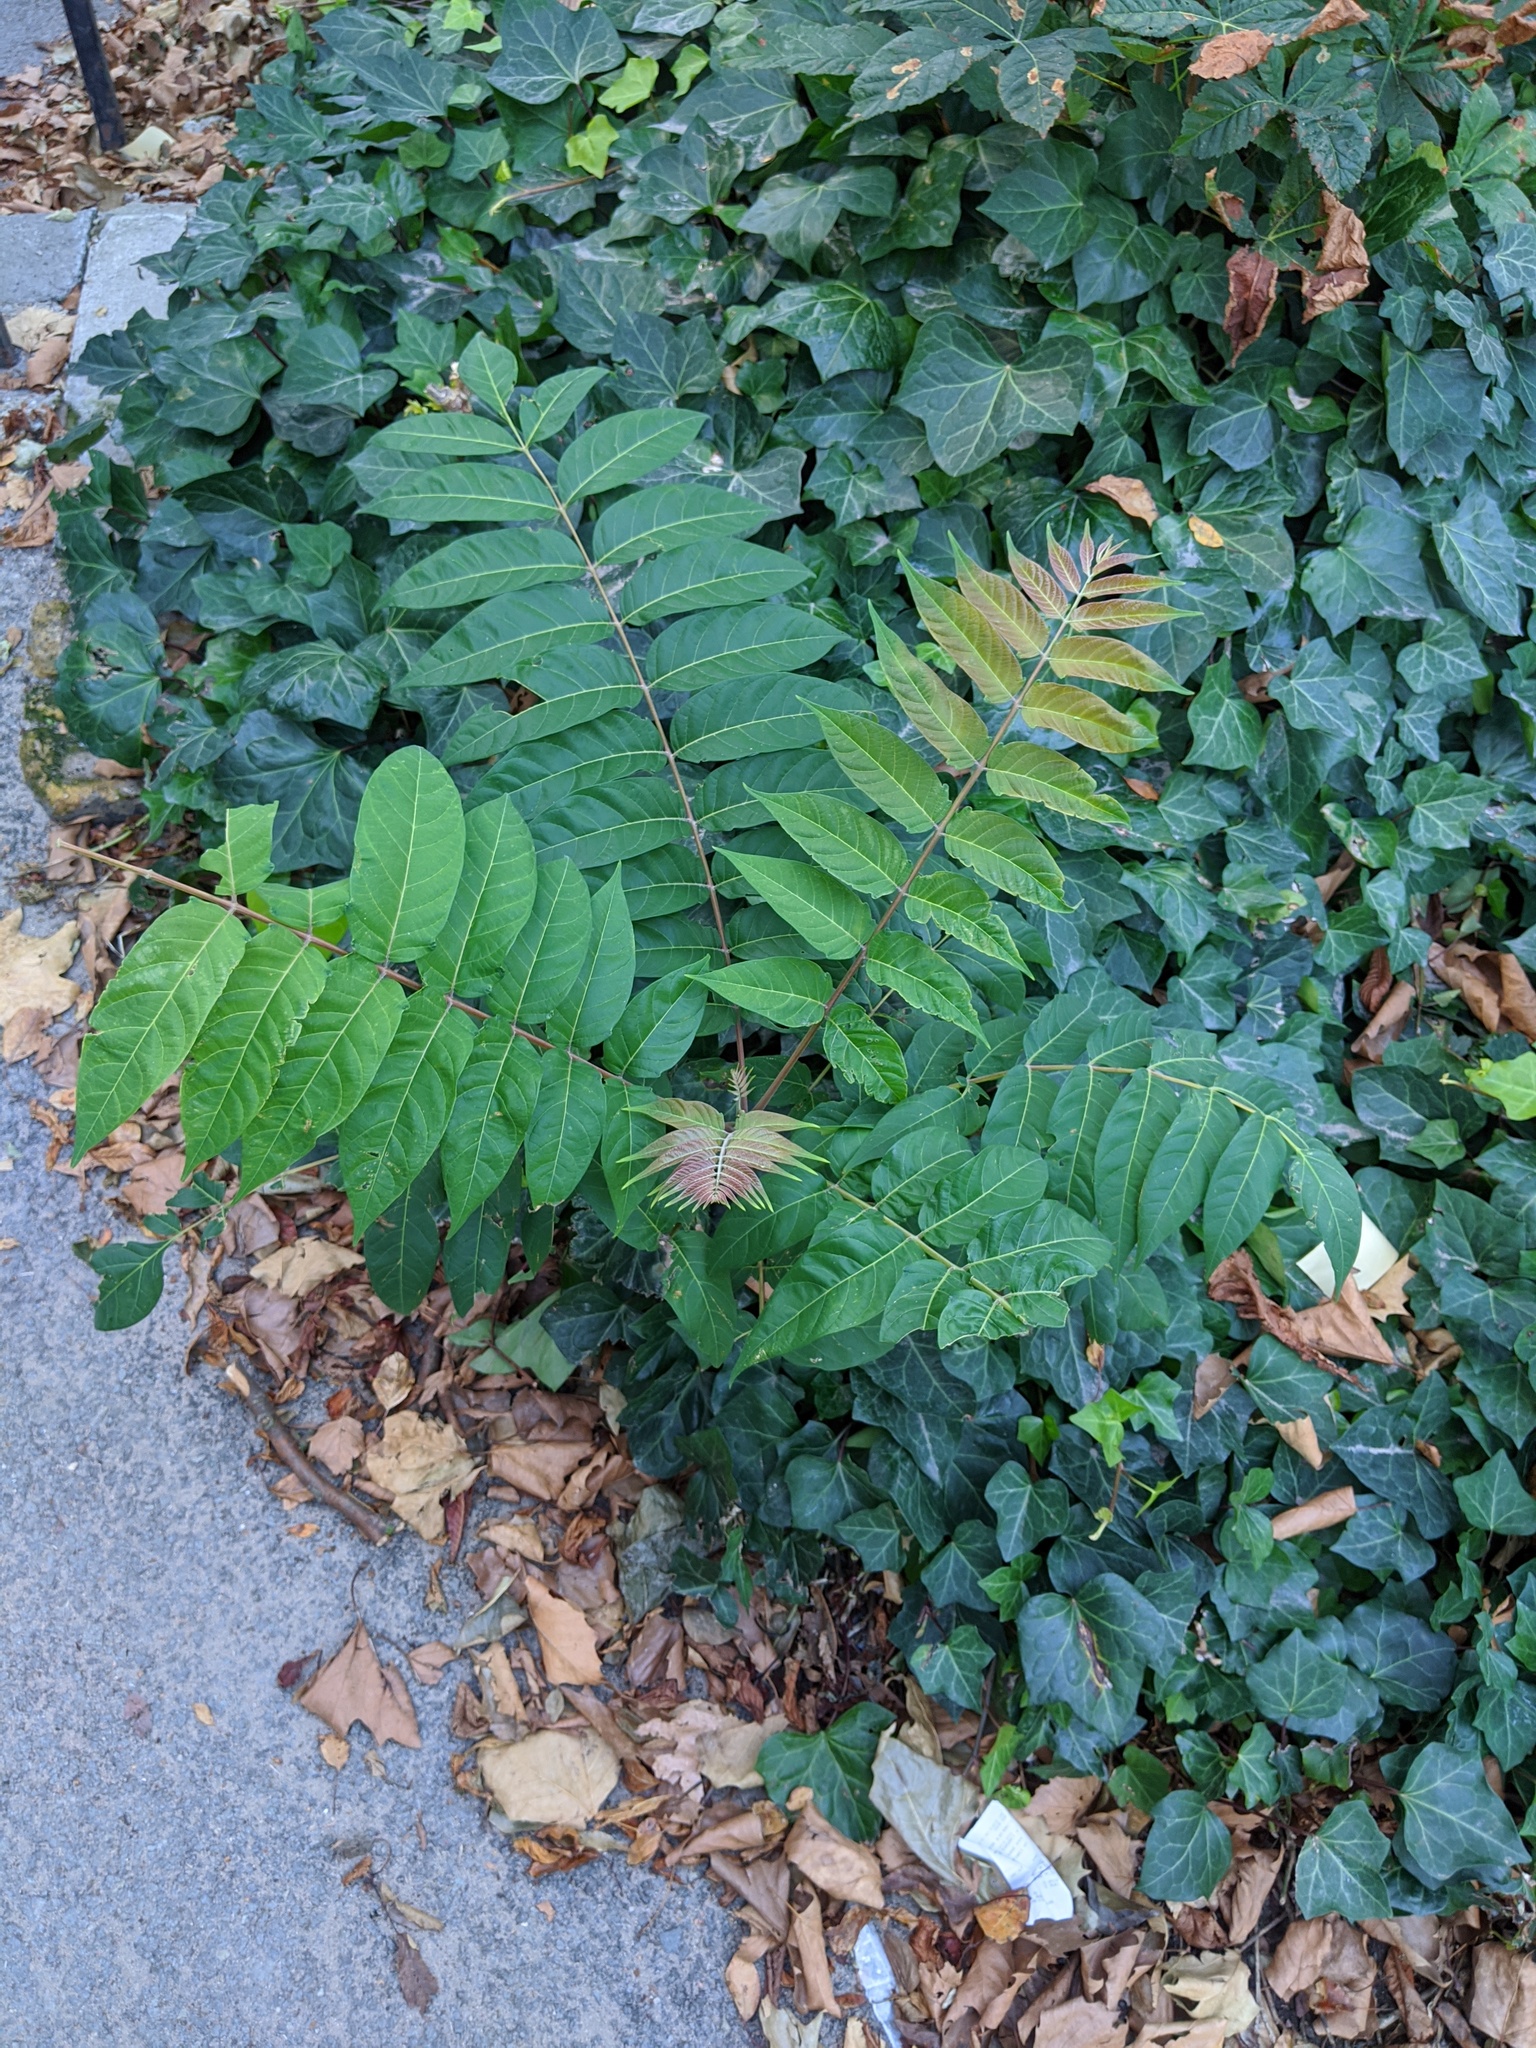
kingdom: Plantae
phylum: Tracheophyta
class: Magnoliopsida
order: Sapindales
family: Simaroubaceae
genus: Ailanthus
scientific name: Ailanthus altissima
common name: Tree-of-heaven
